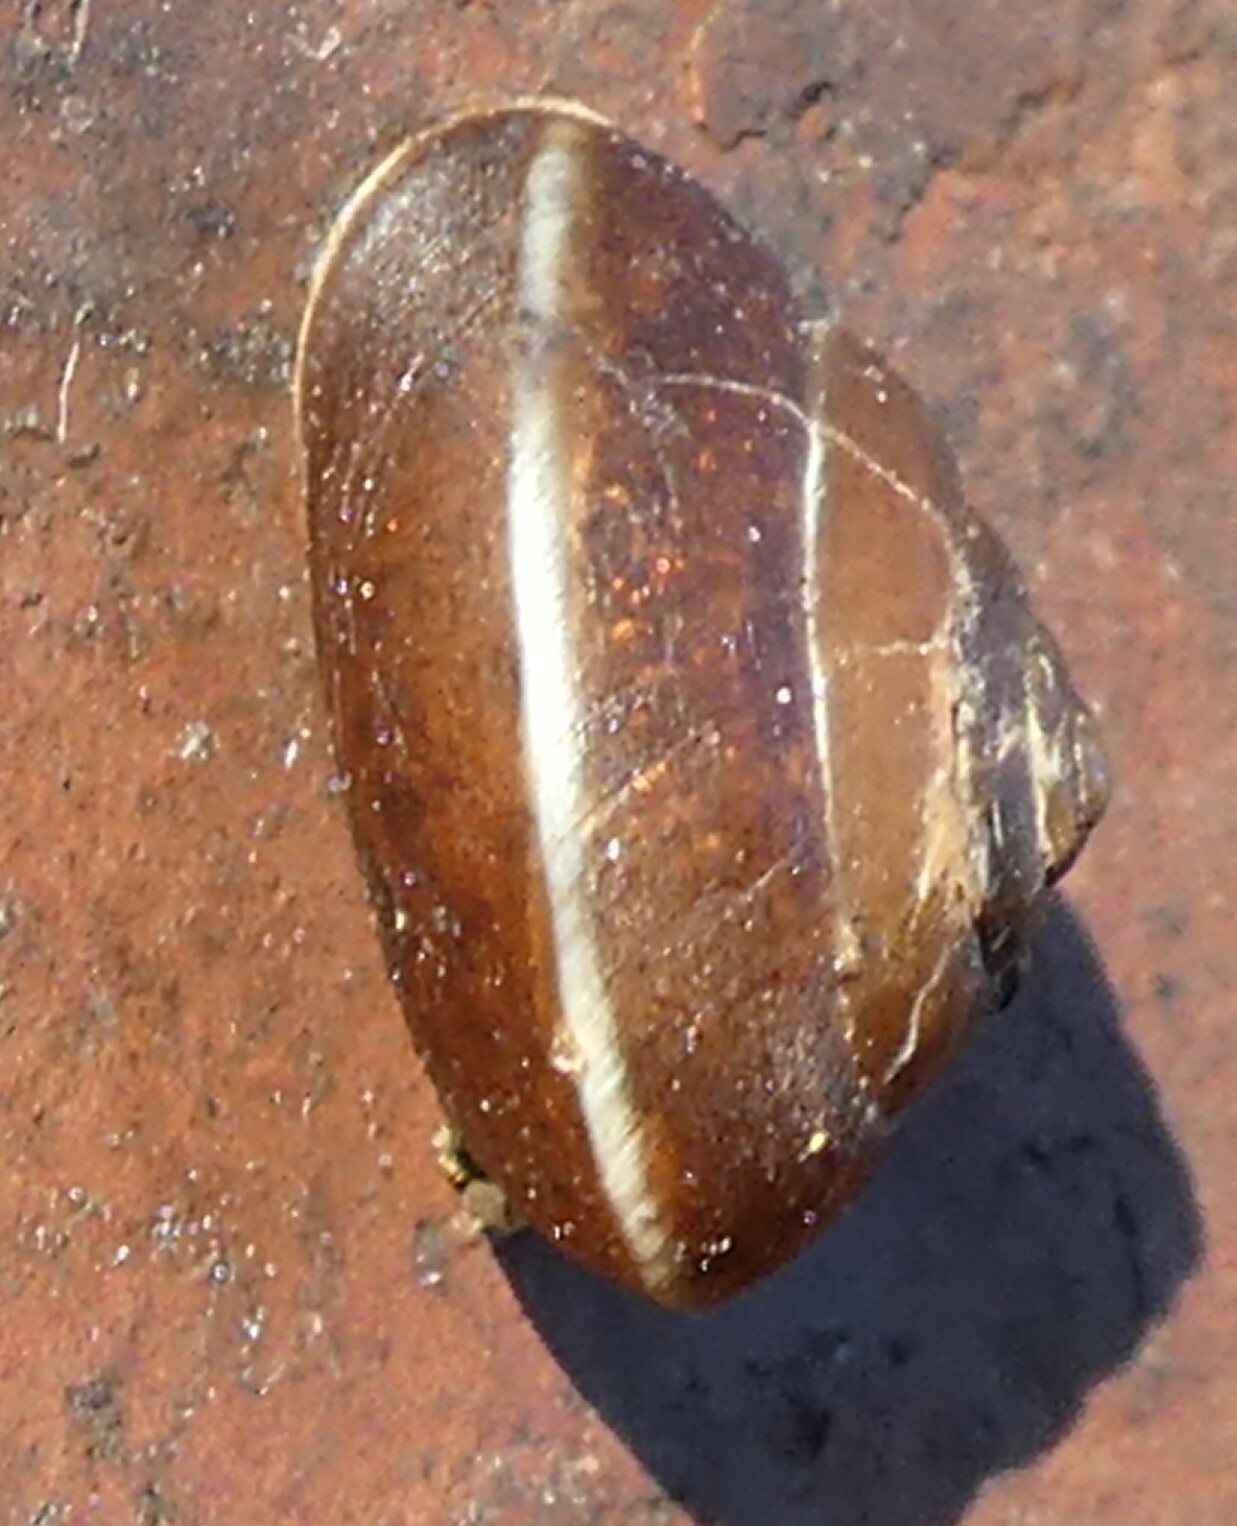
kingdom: Animalia
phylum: Mollusca
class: Gastropoda
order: Stylommatophora
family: Hygromiidae
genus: Hygromia
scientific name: Hygromia cinctella
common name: Girdled snail
